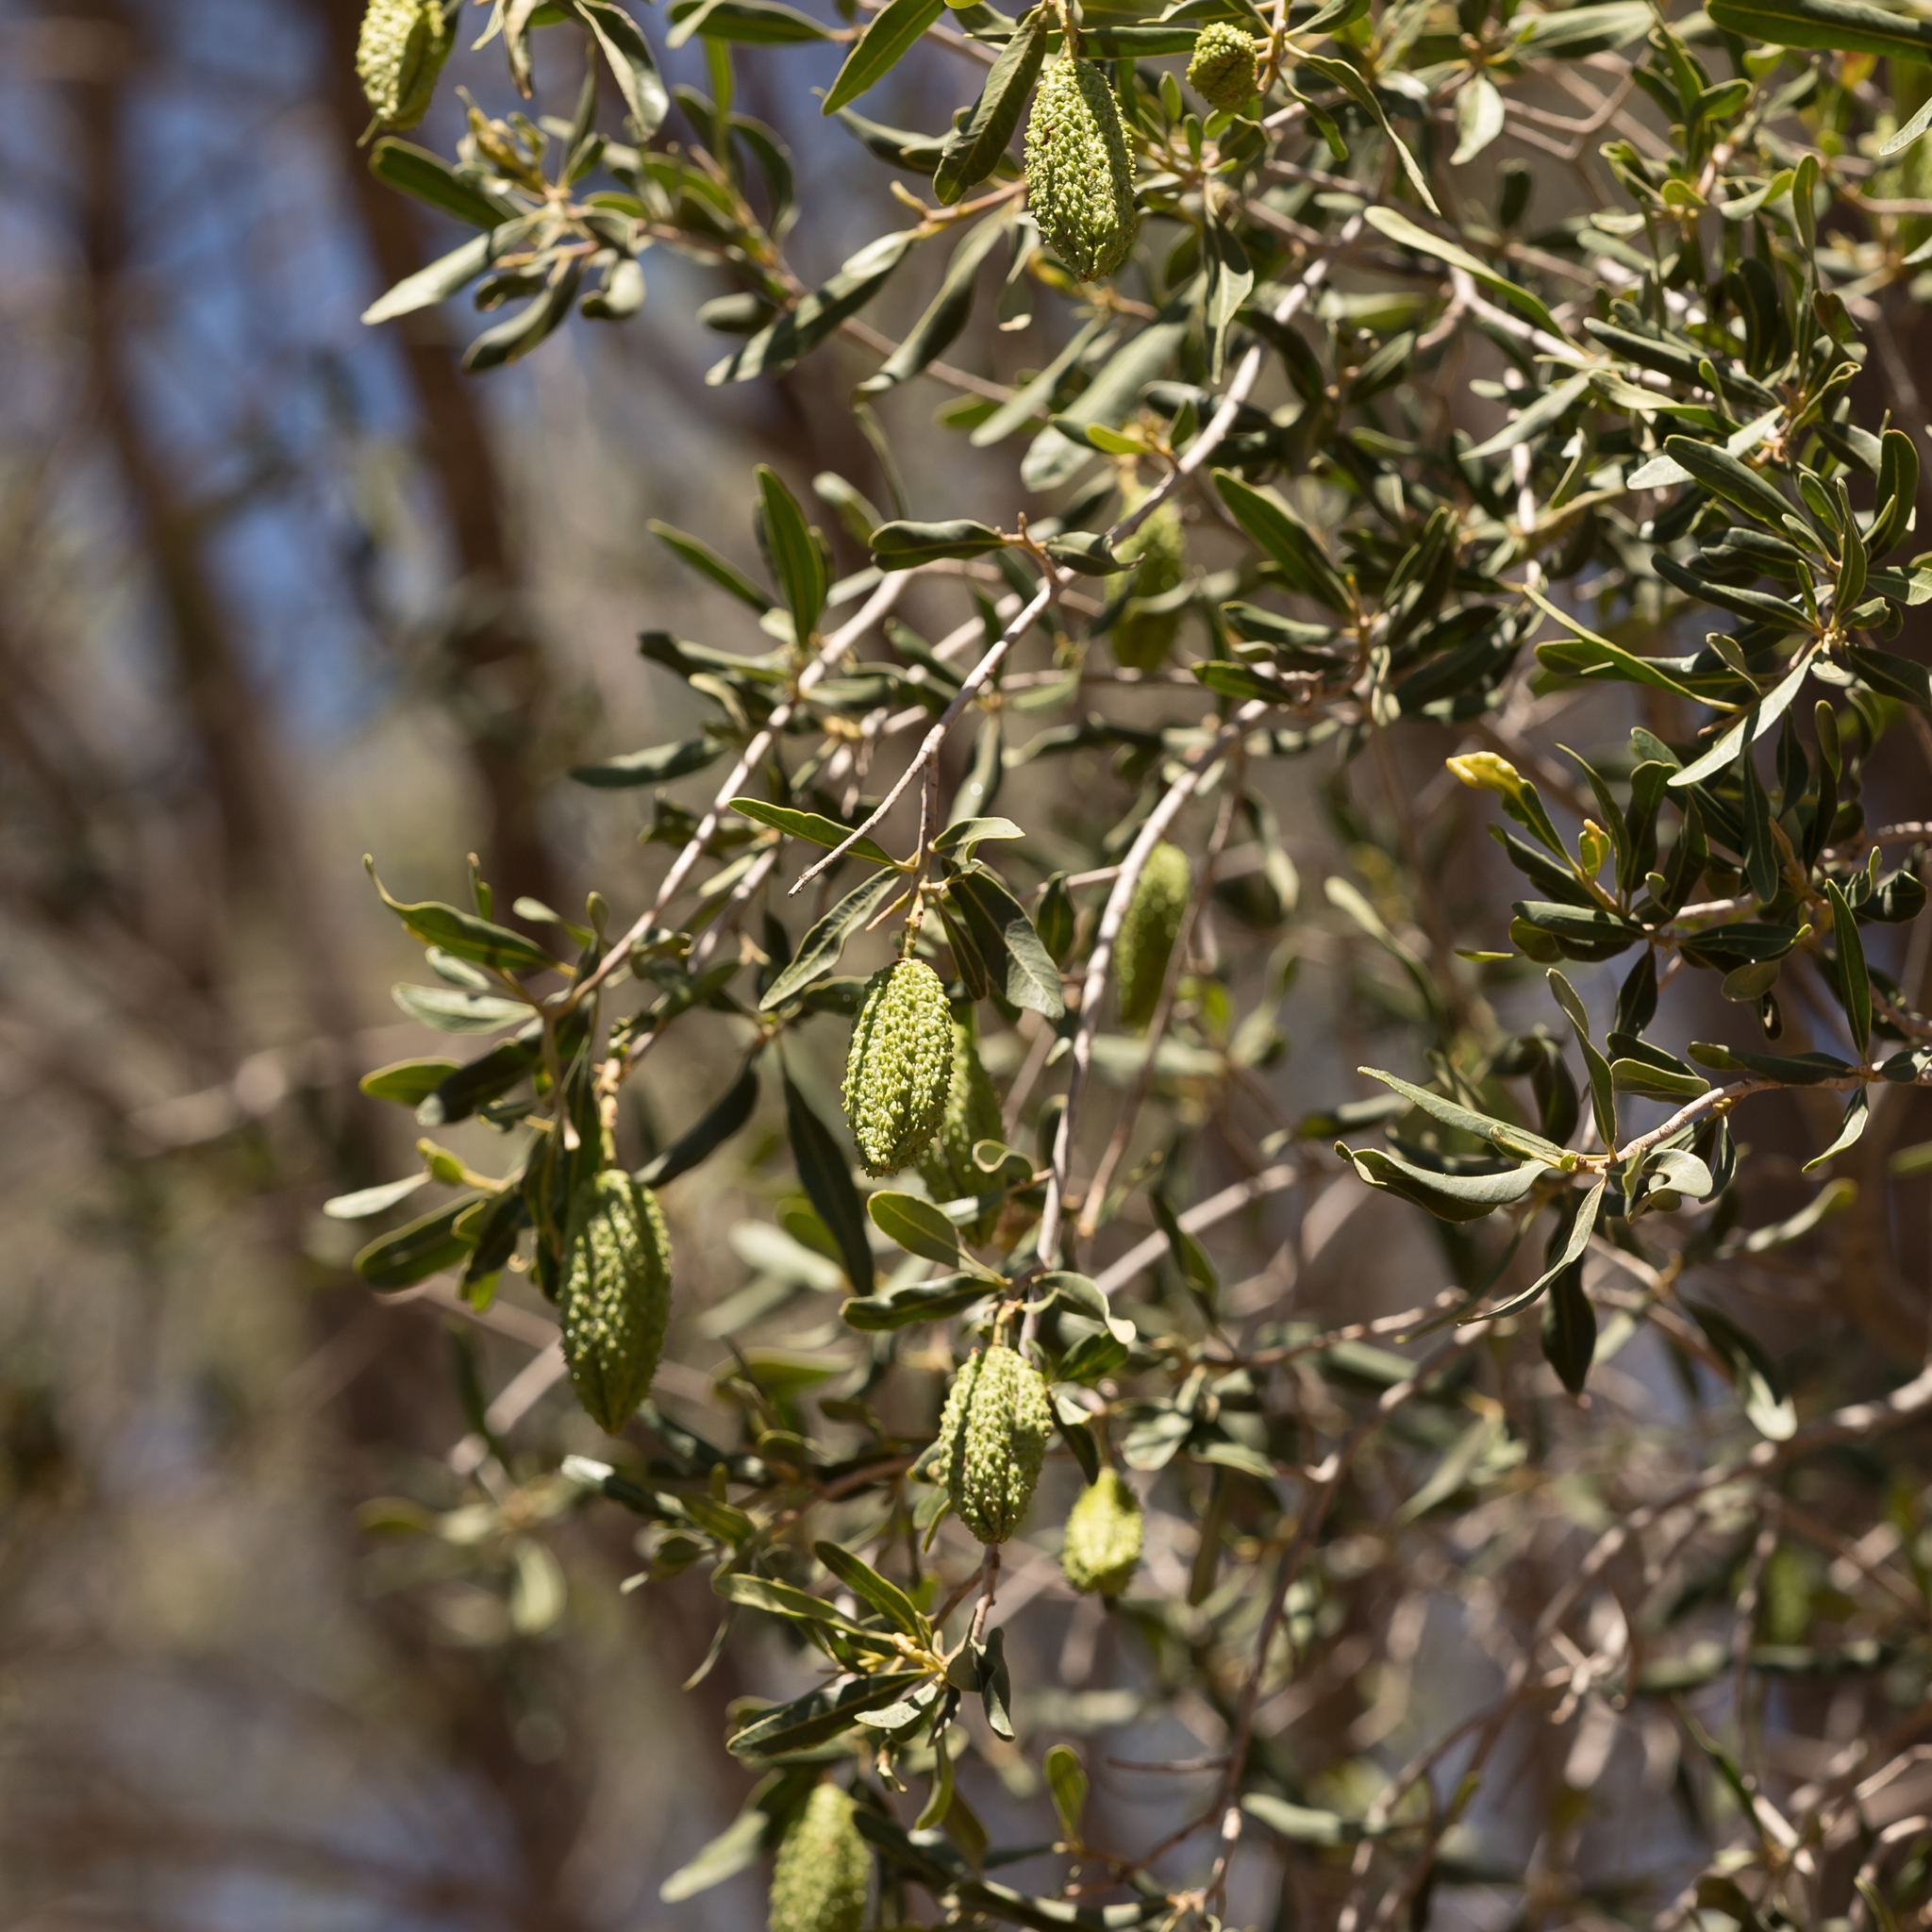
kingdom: Plantae
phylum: Tracheophyta
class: Magnoliopsida
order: Sapindales
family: Rutaceae
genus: Flindersia
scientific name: Flindersia maculosa
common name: Leopardtree
